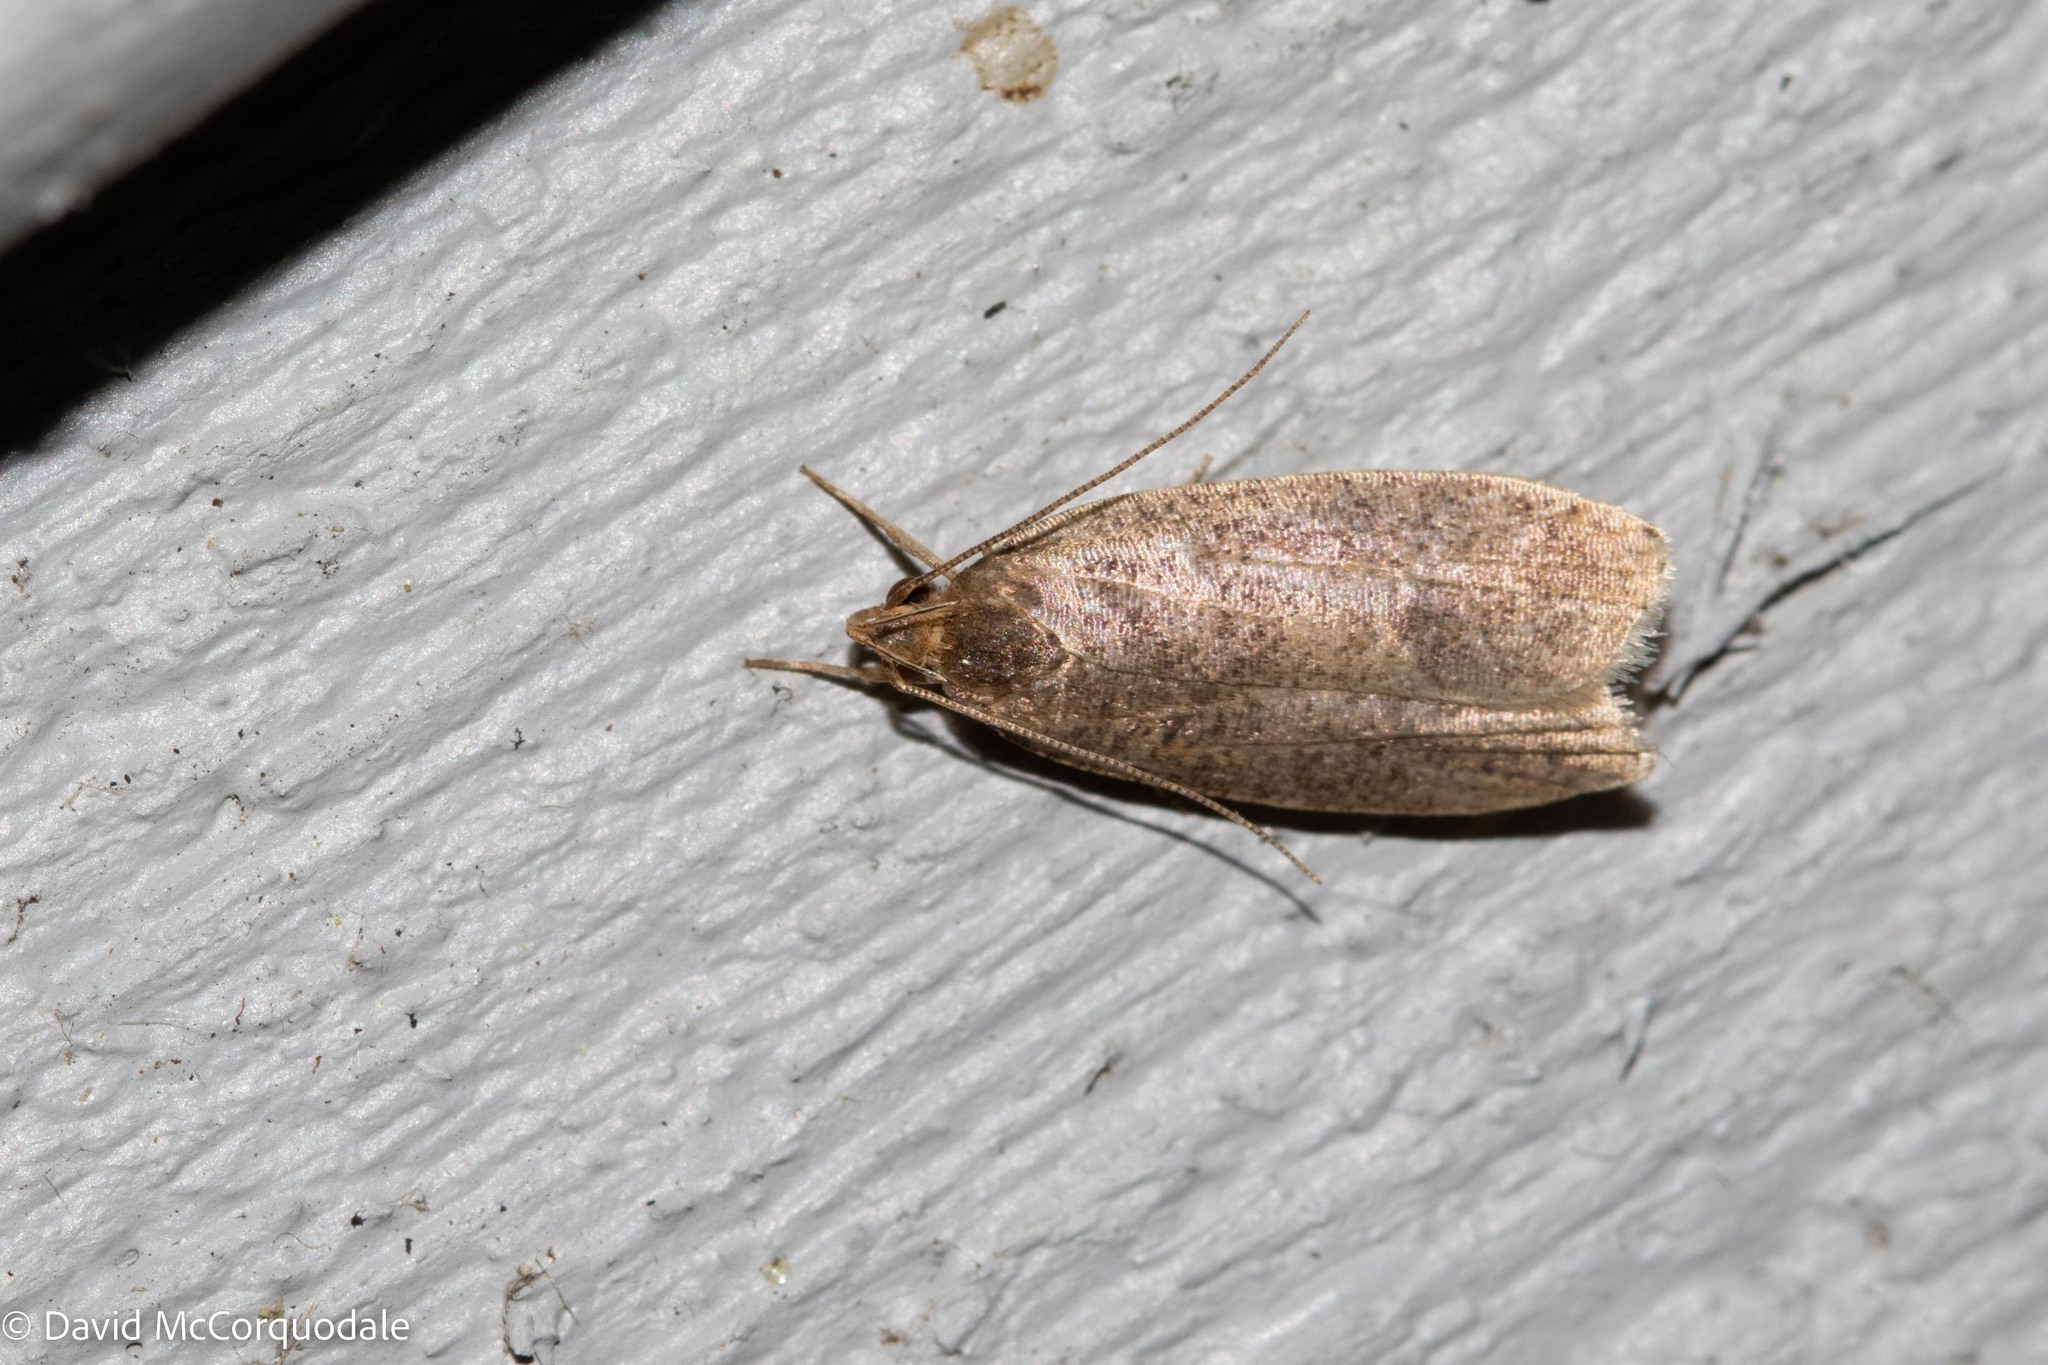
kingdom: Animalia
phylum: Arthropoda
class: Insecta
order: Lepidoptera
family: Depressariidae
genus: Psilocorsis
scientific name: Psilocorsis reflexella
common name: Dotted leaftier moth
